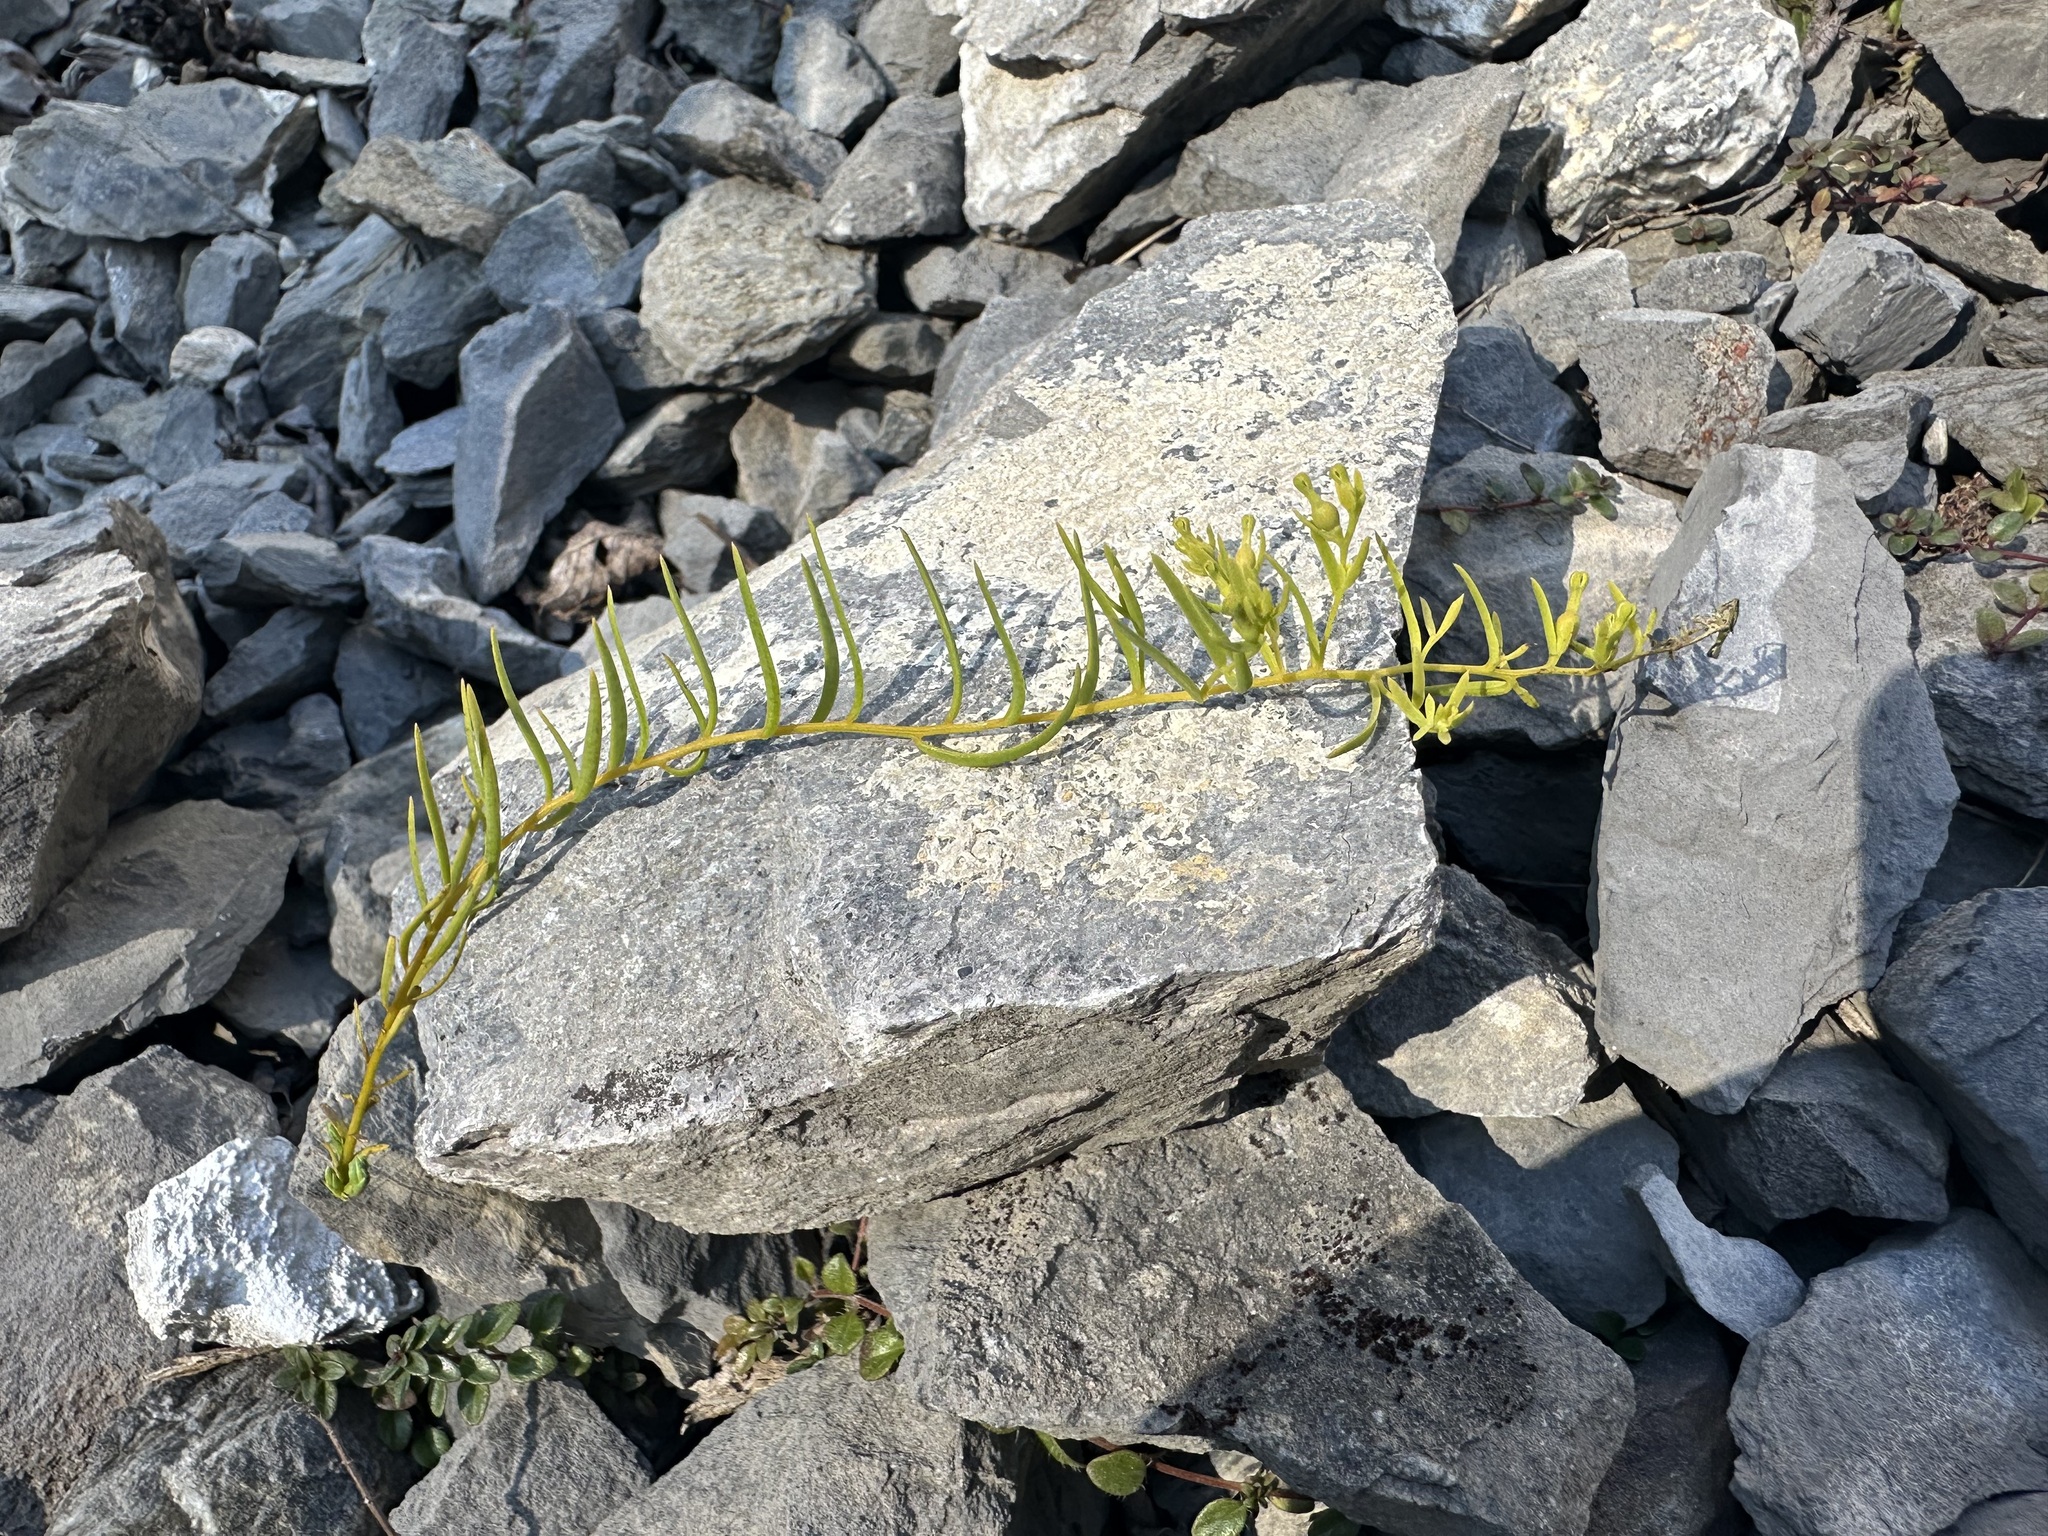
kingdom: Plantae
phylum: Tracheophyta
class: Magnoliopsida
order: Santalales
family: Thesiaceae
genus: Thesium
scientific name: Thesium alpinum
